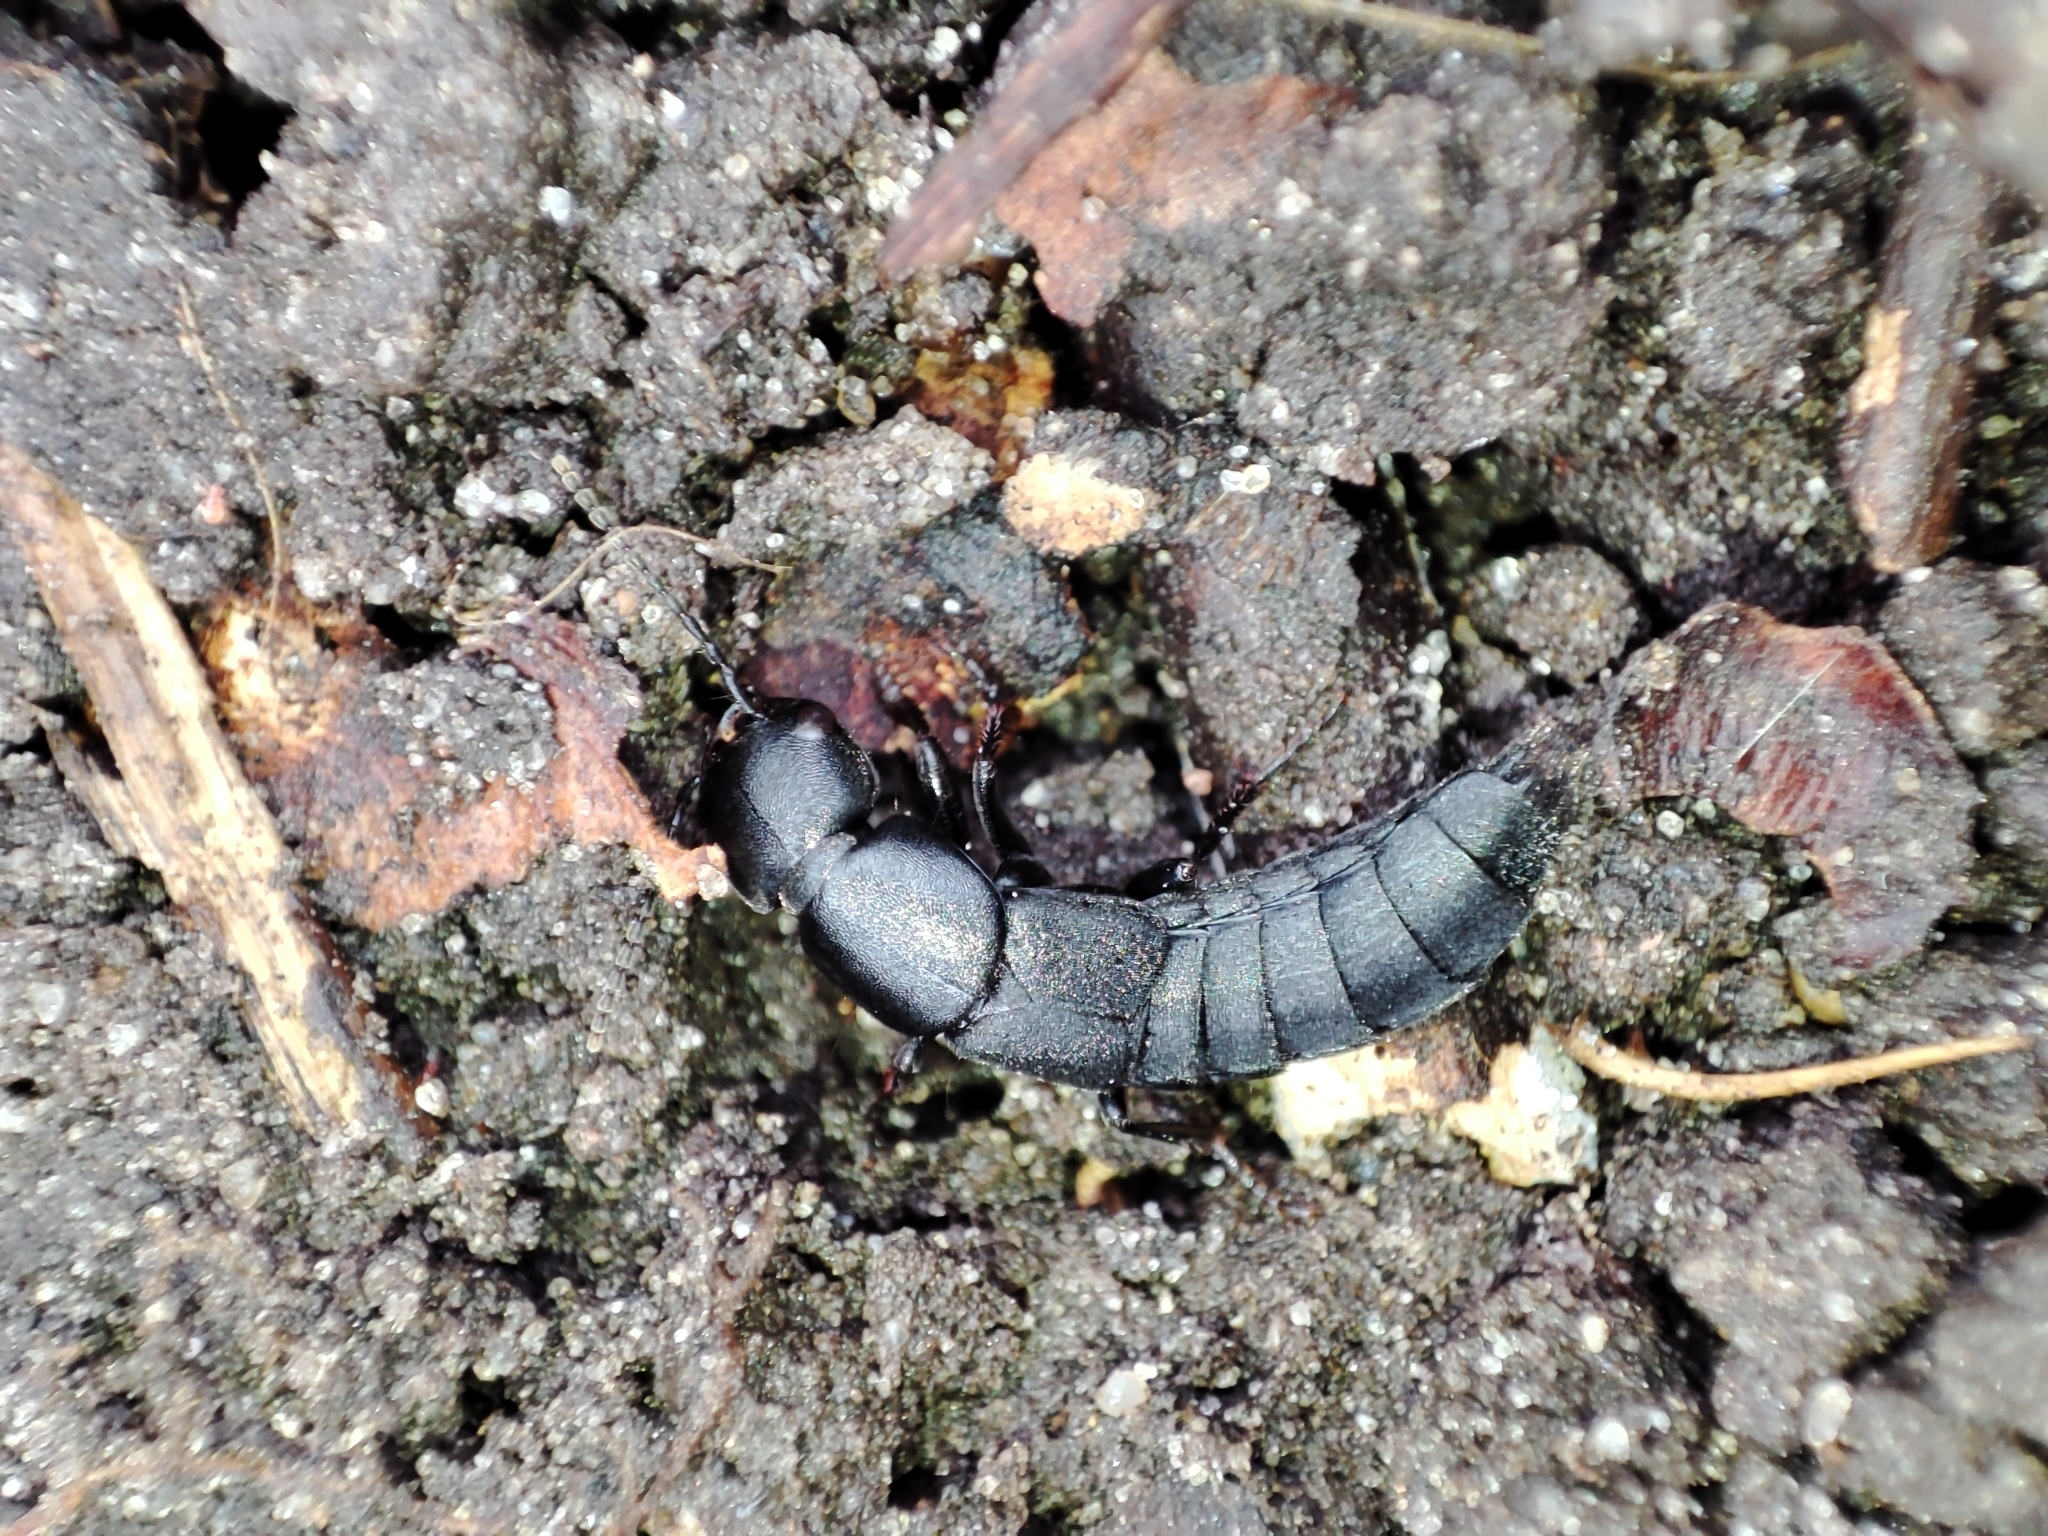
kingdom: Animalia
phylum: Arthropoda
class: Insecta
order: Coleoptera
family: Staphylinidae
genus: Ocypus
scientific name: Ocypus nitens
